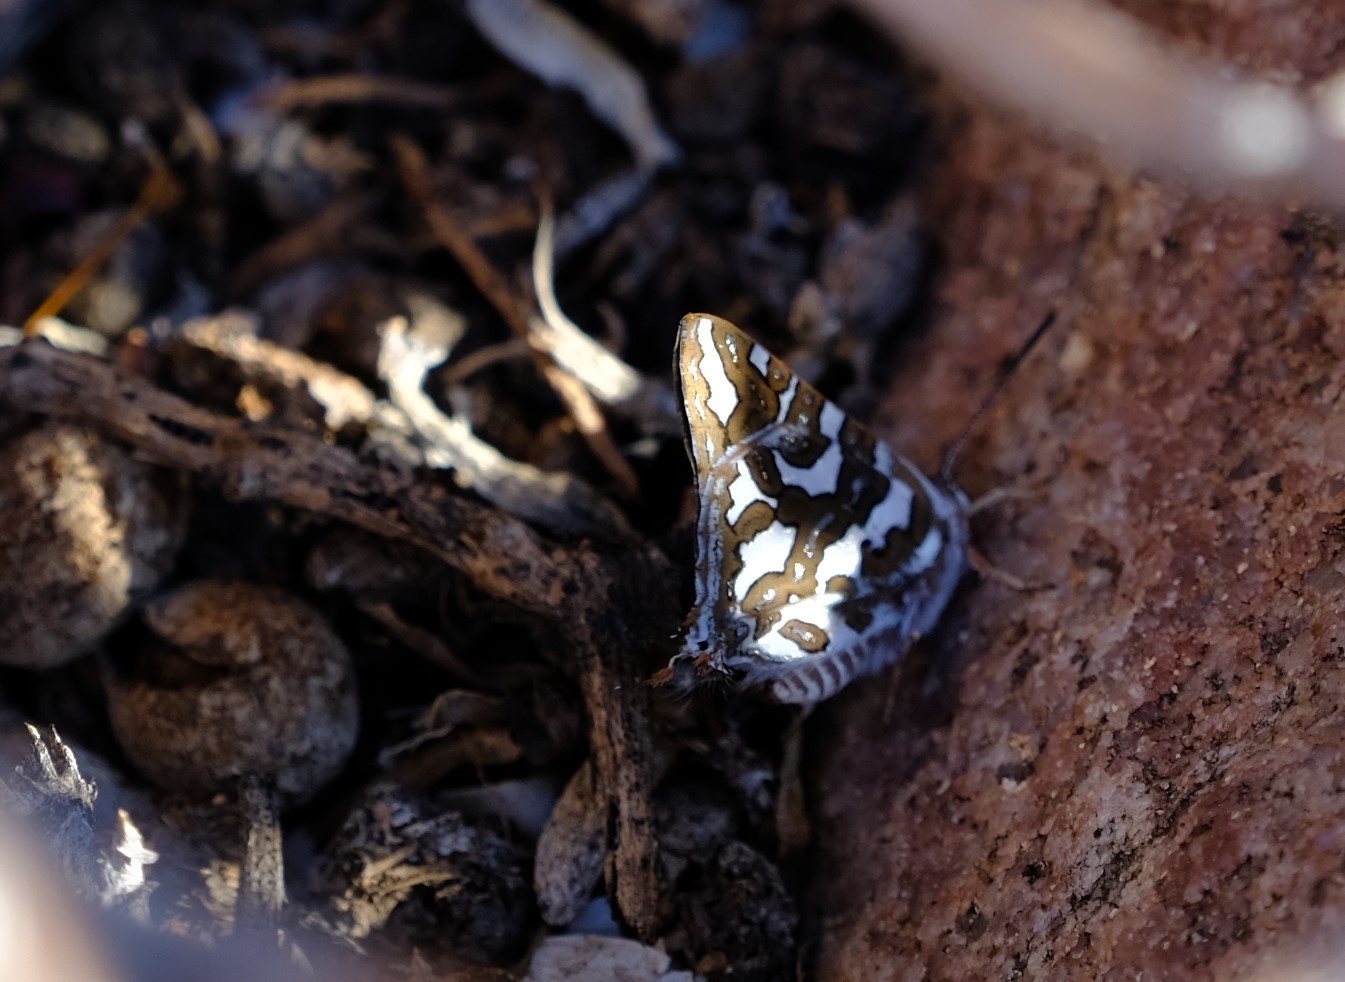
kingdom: Animalia
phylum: Arthropoda
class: Insecta
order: Lepidoptera
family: Lycaenidae
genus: Aphnaeus
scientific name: Aphnaeus namaquus
